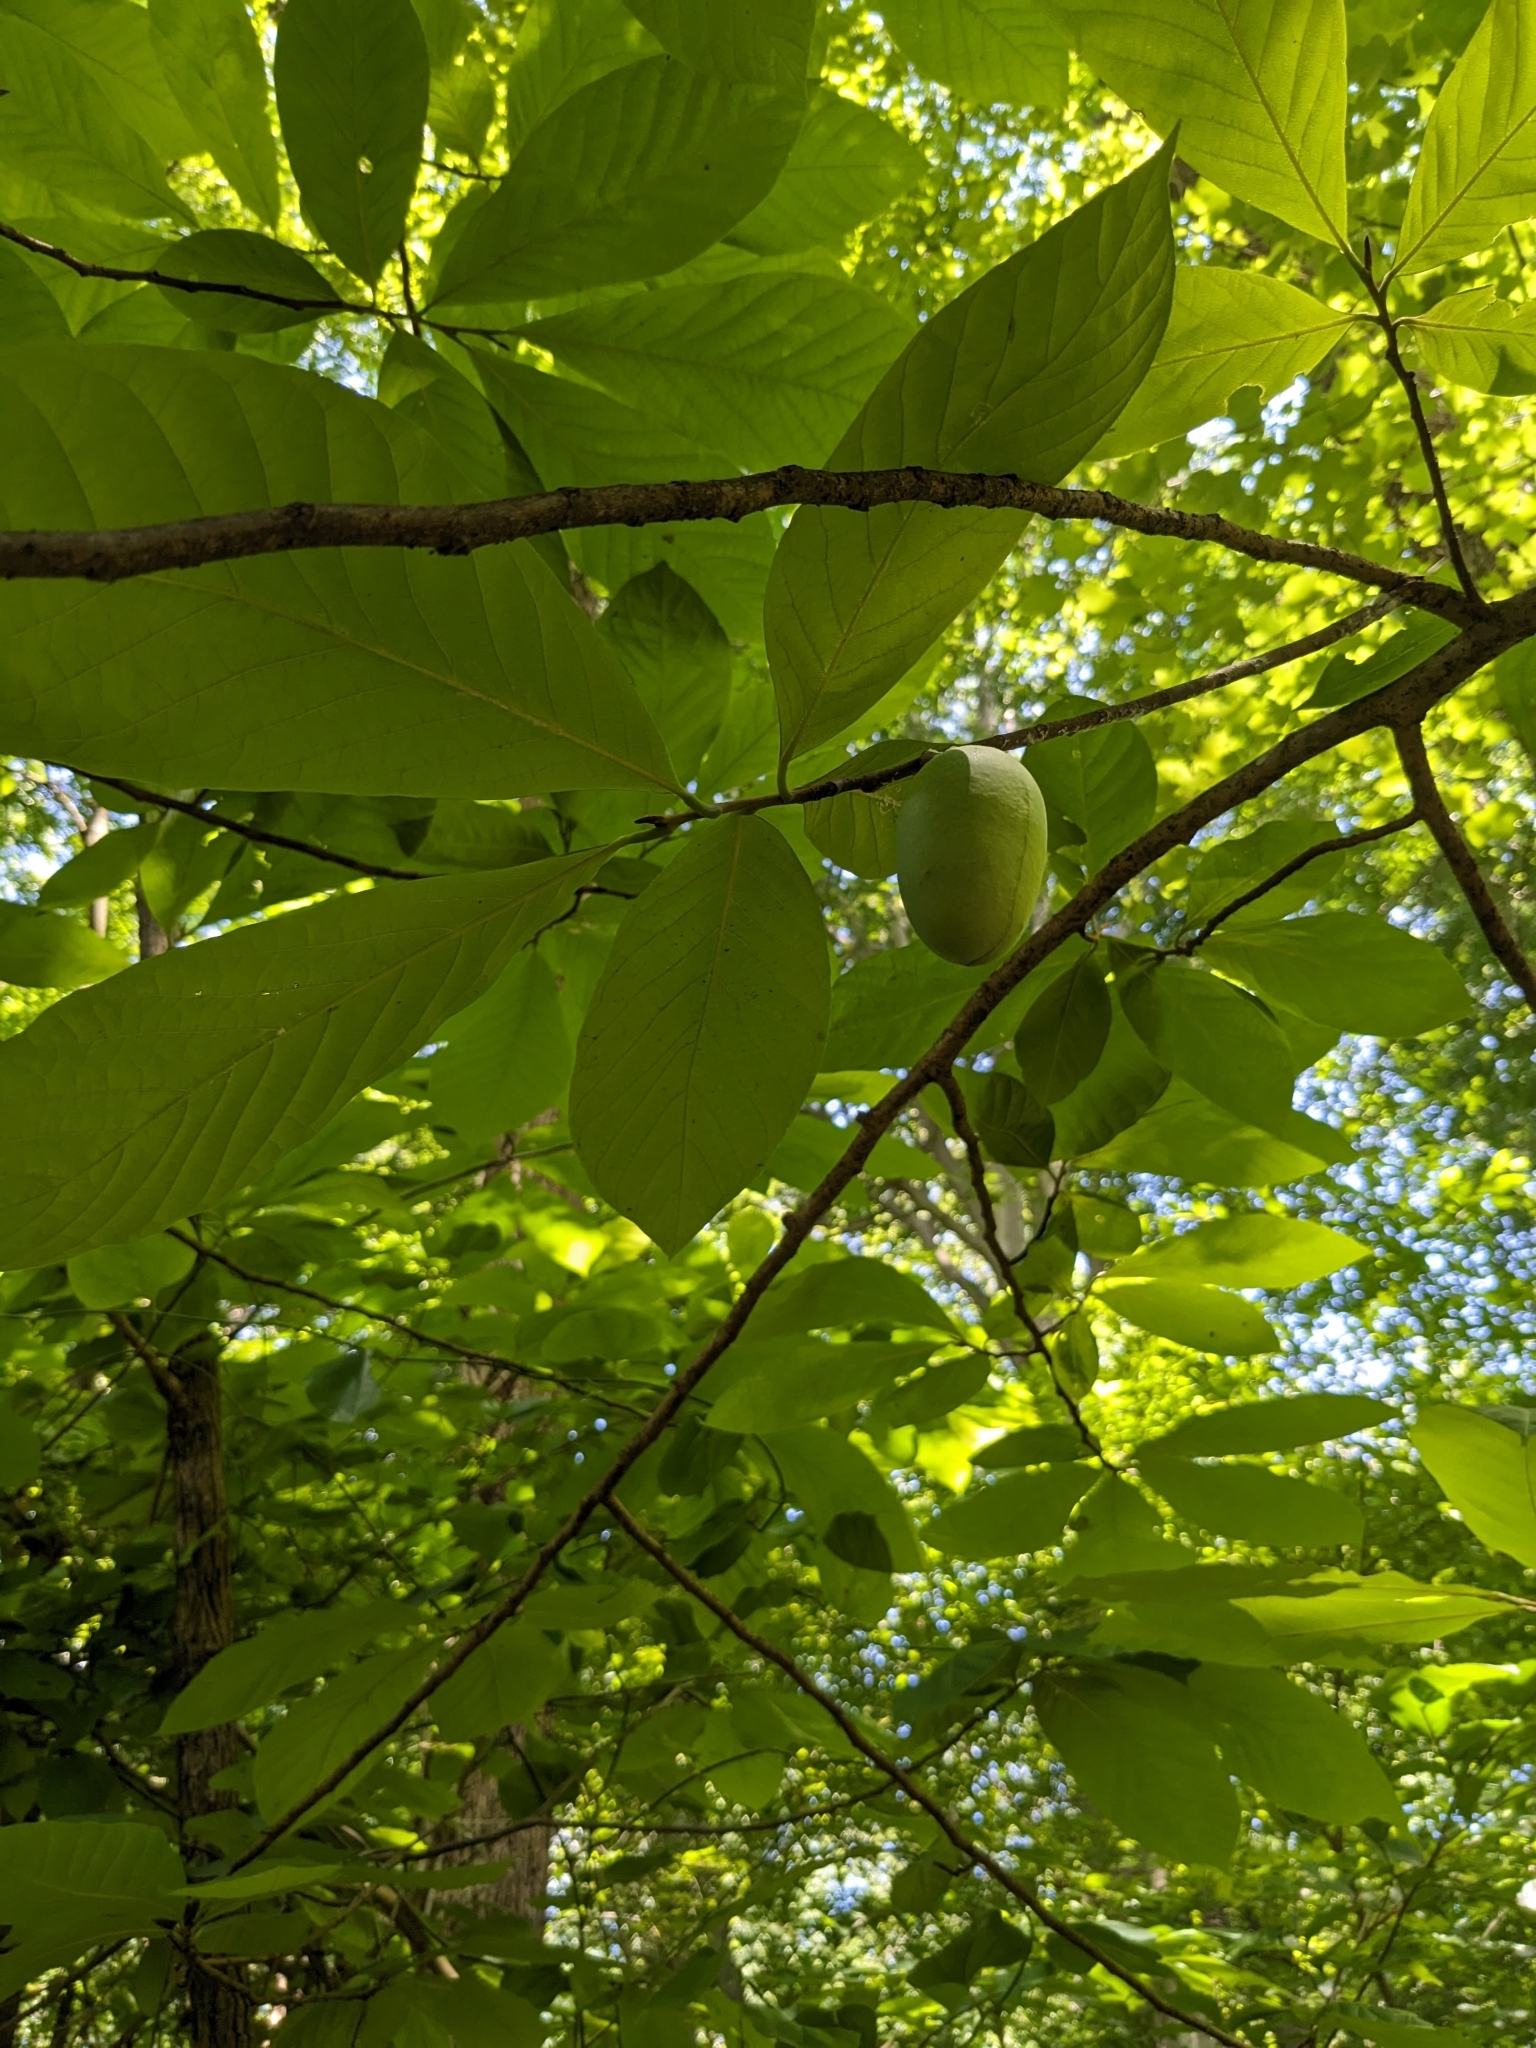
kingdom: Plantae
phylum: Tracheophyta
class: Magnoliopsida
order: Magnoliales
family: Annonaceae
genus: Asimina
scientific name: Asimina triloba
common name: Dog-banana
